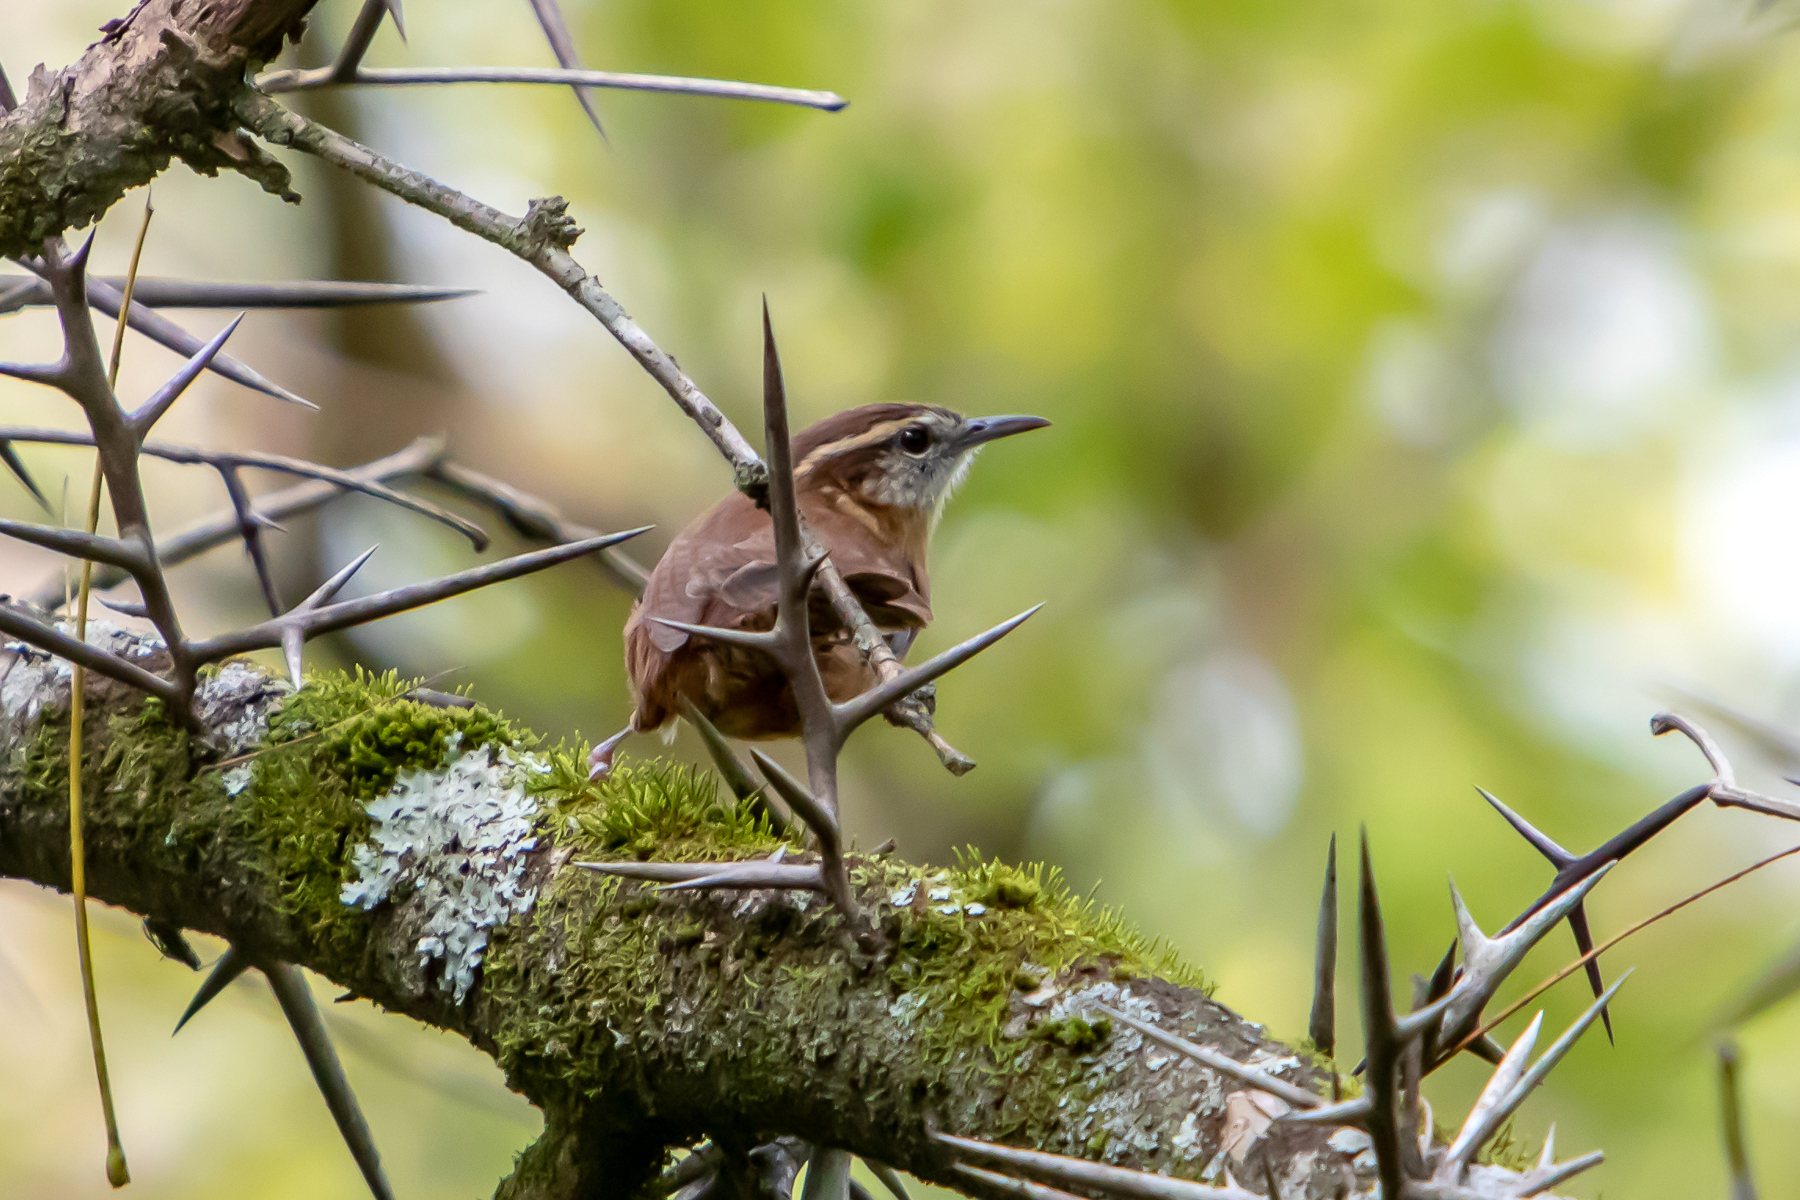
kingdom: Animalia
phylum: Chordata
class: Aves
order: Passeriformes
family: Troglodytidae
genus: Thryothorus
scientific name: Thryothorus ludovicianus
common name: Carolina wren
